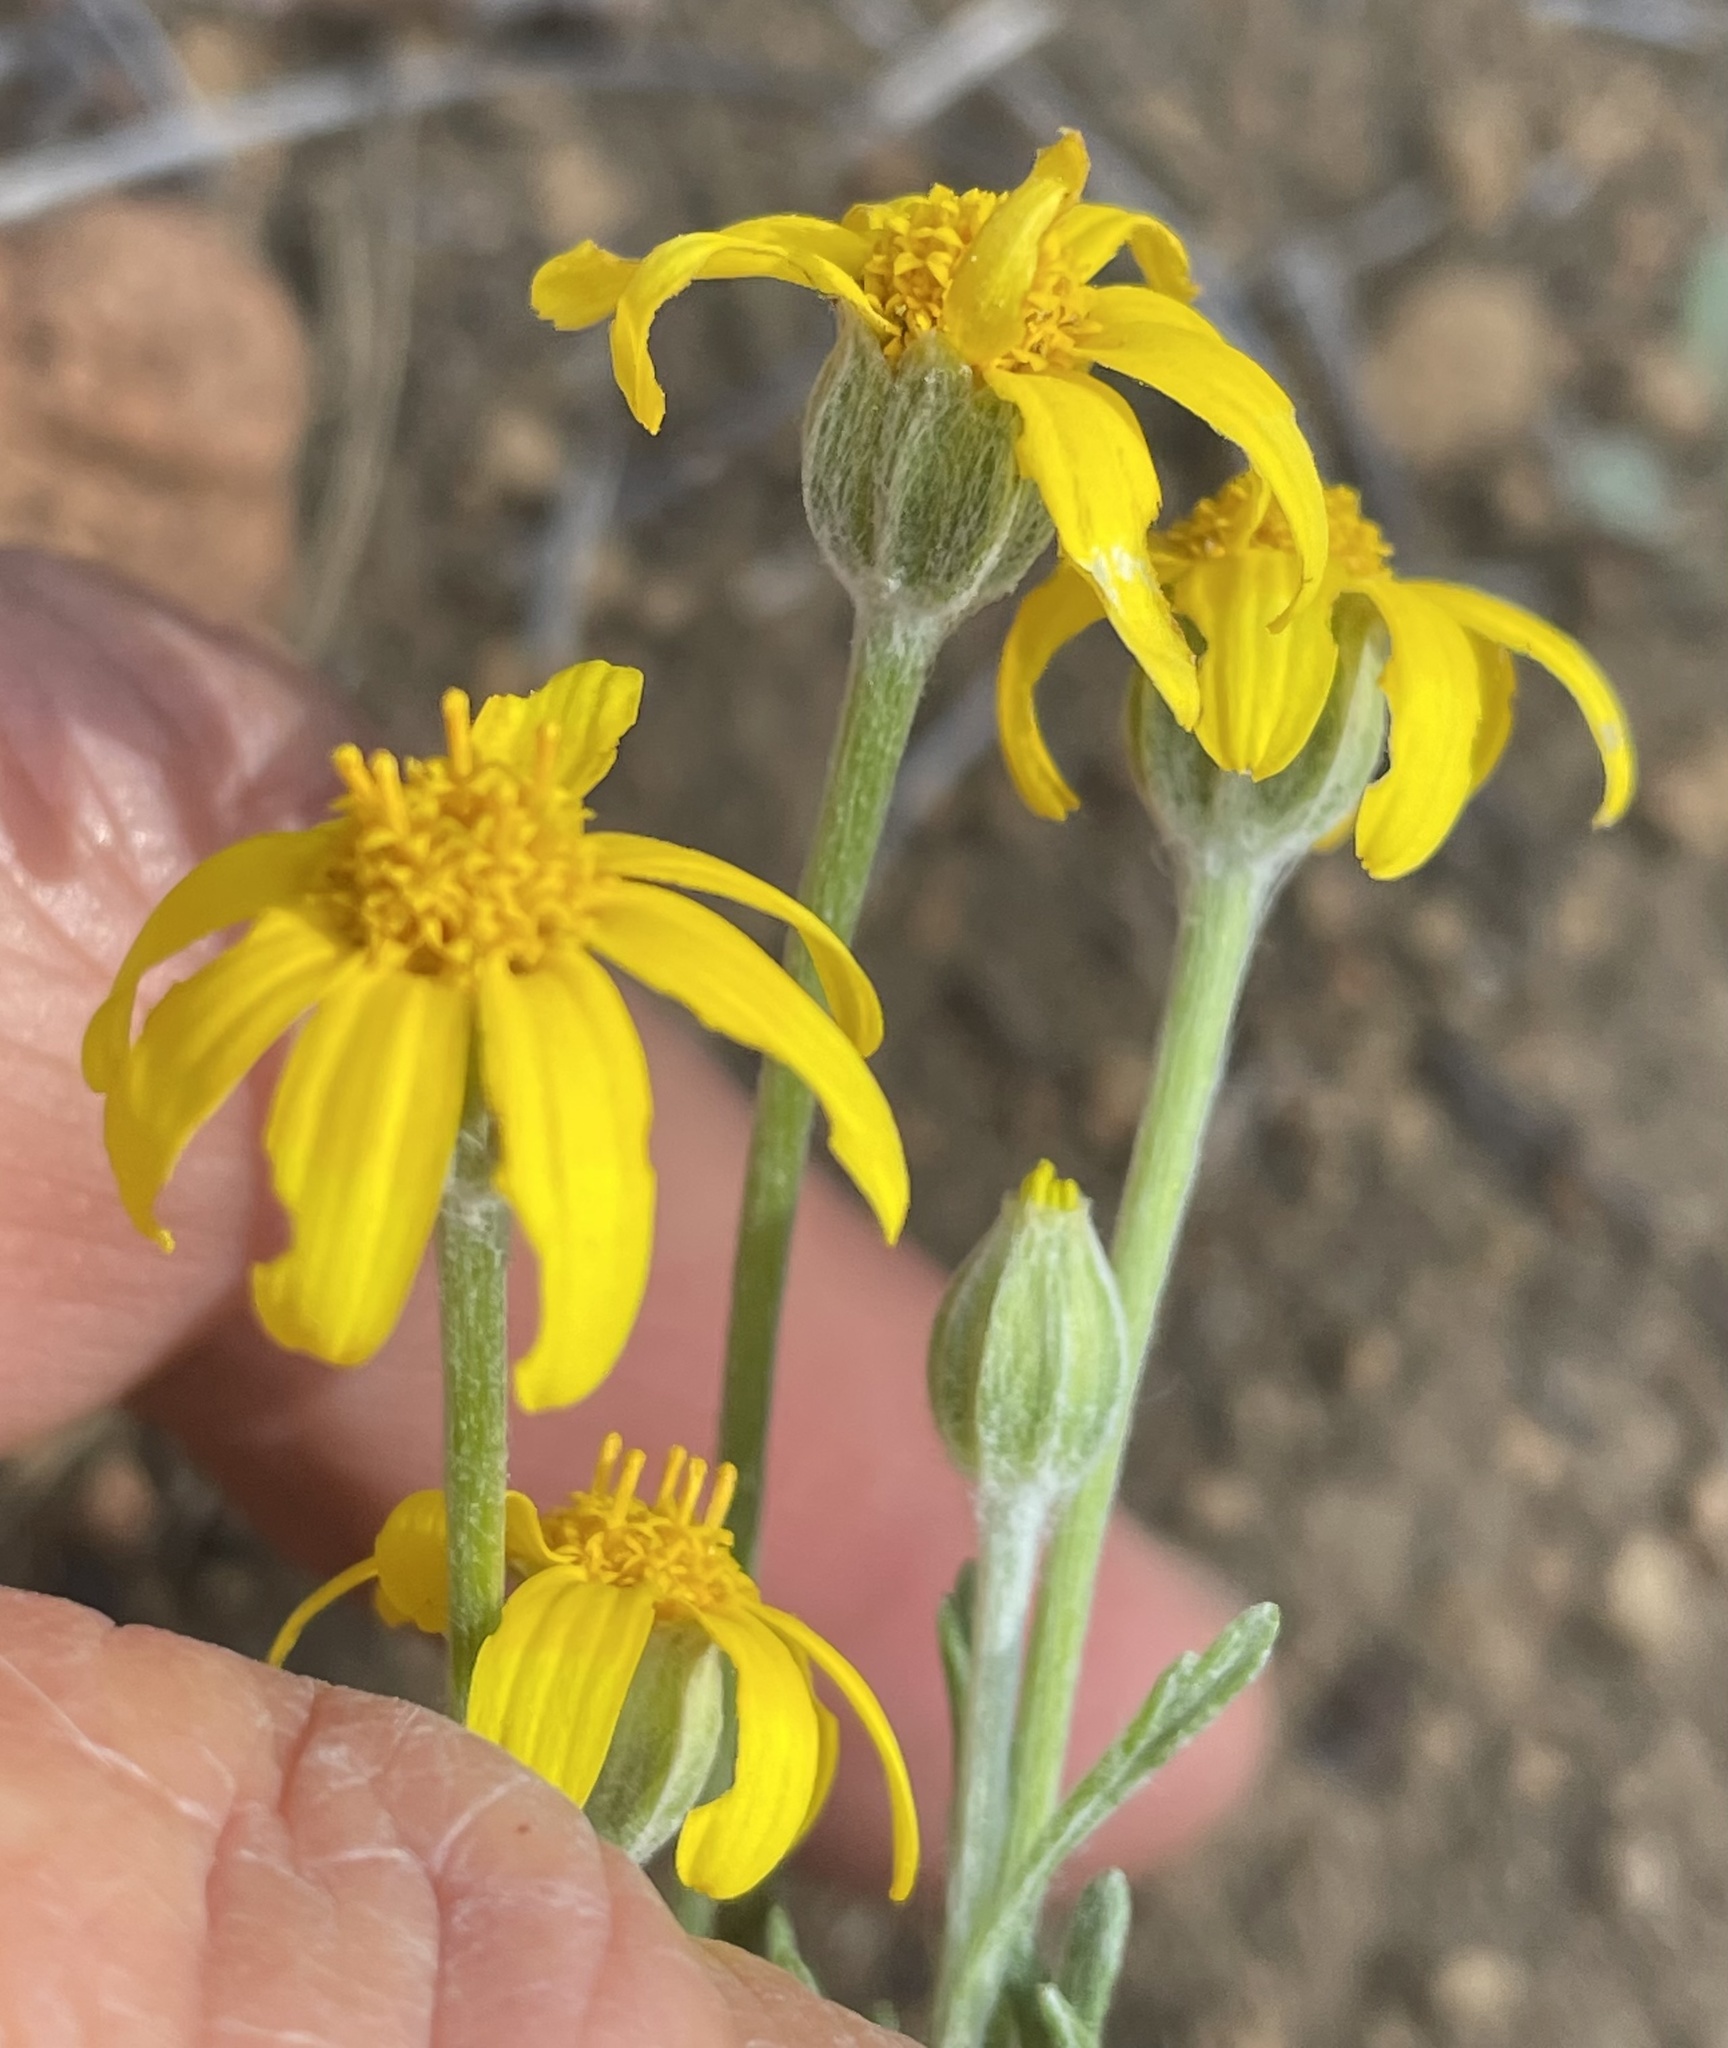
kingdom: Plantae
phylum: Tracheophyta
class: Magnoliopsida
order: Asterales
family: Asteraceae
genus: Eriophyllum
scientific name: Eriophyllum lanatum
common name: Common woolly-sunflower
